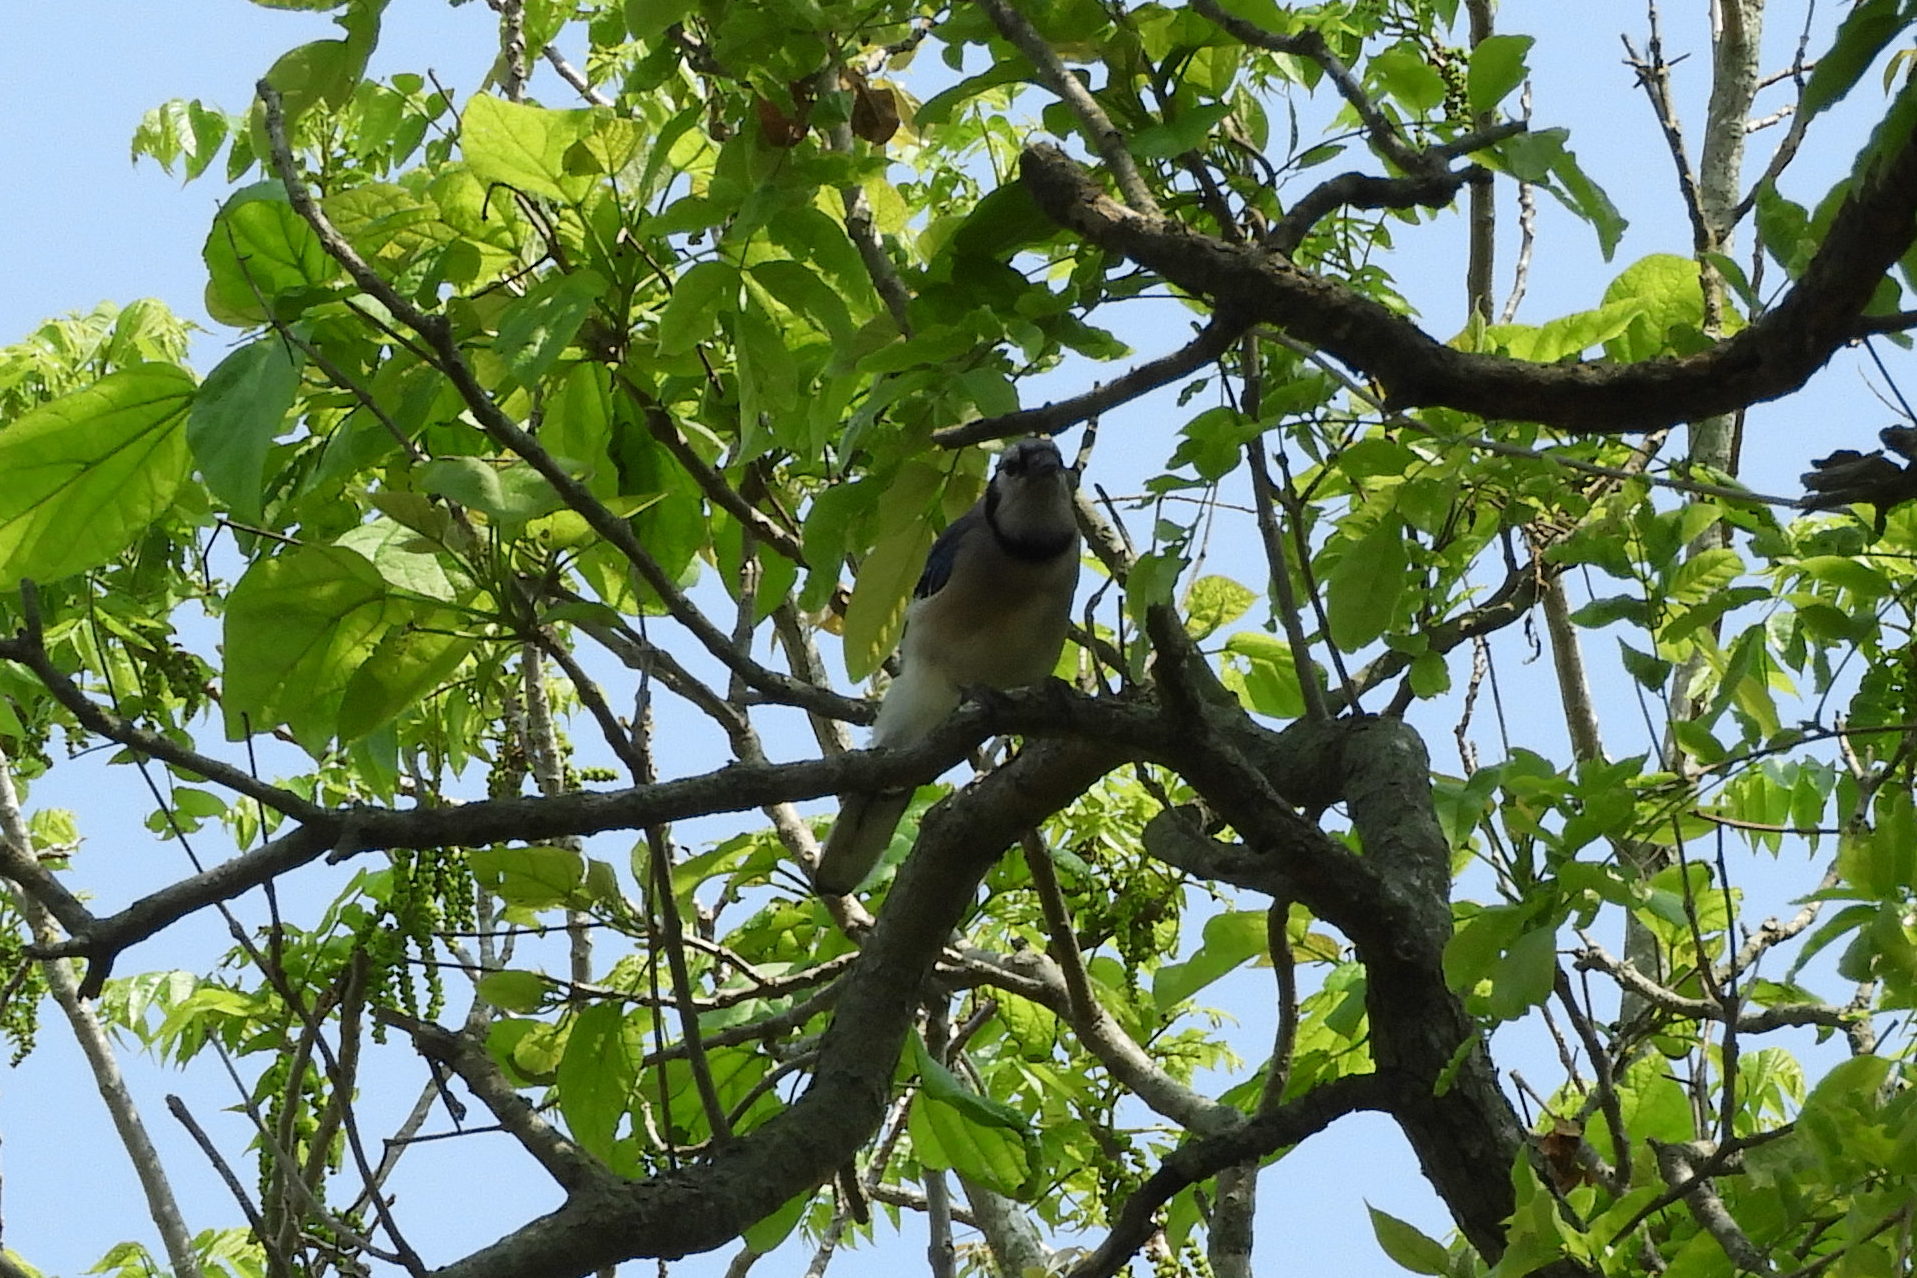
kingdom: Animalia
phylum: Chordata
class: Aves
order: Passeriformes
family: Corvidae
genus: Cyanocitta
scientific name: Cyanocitta cristata
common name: Blue jay
